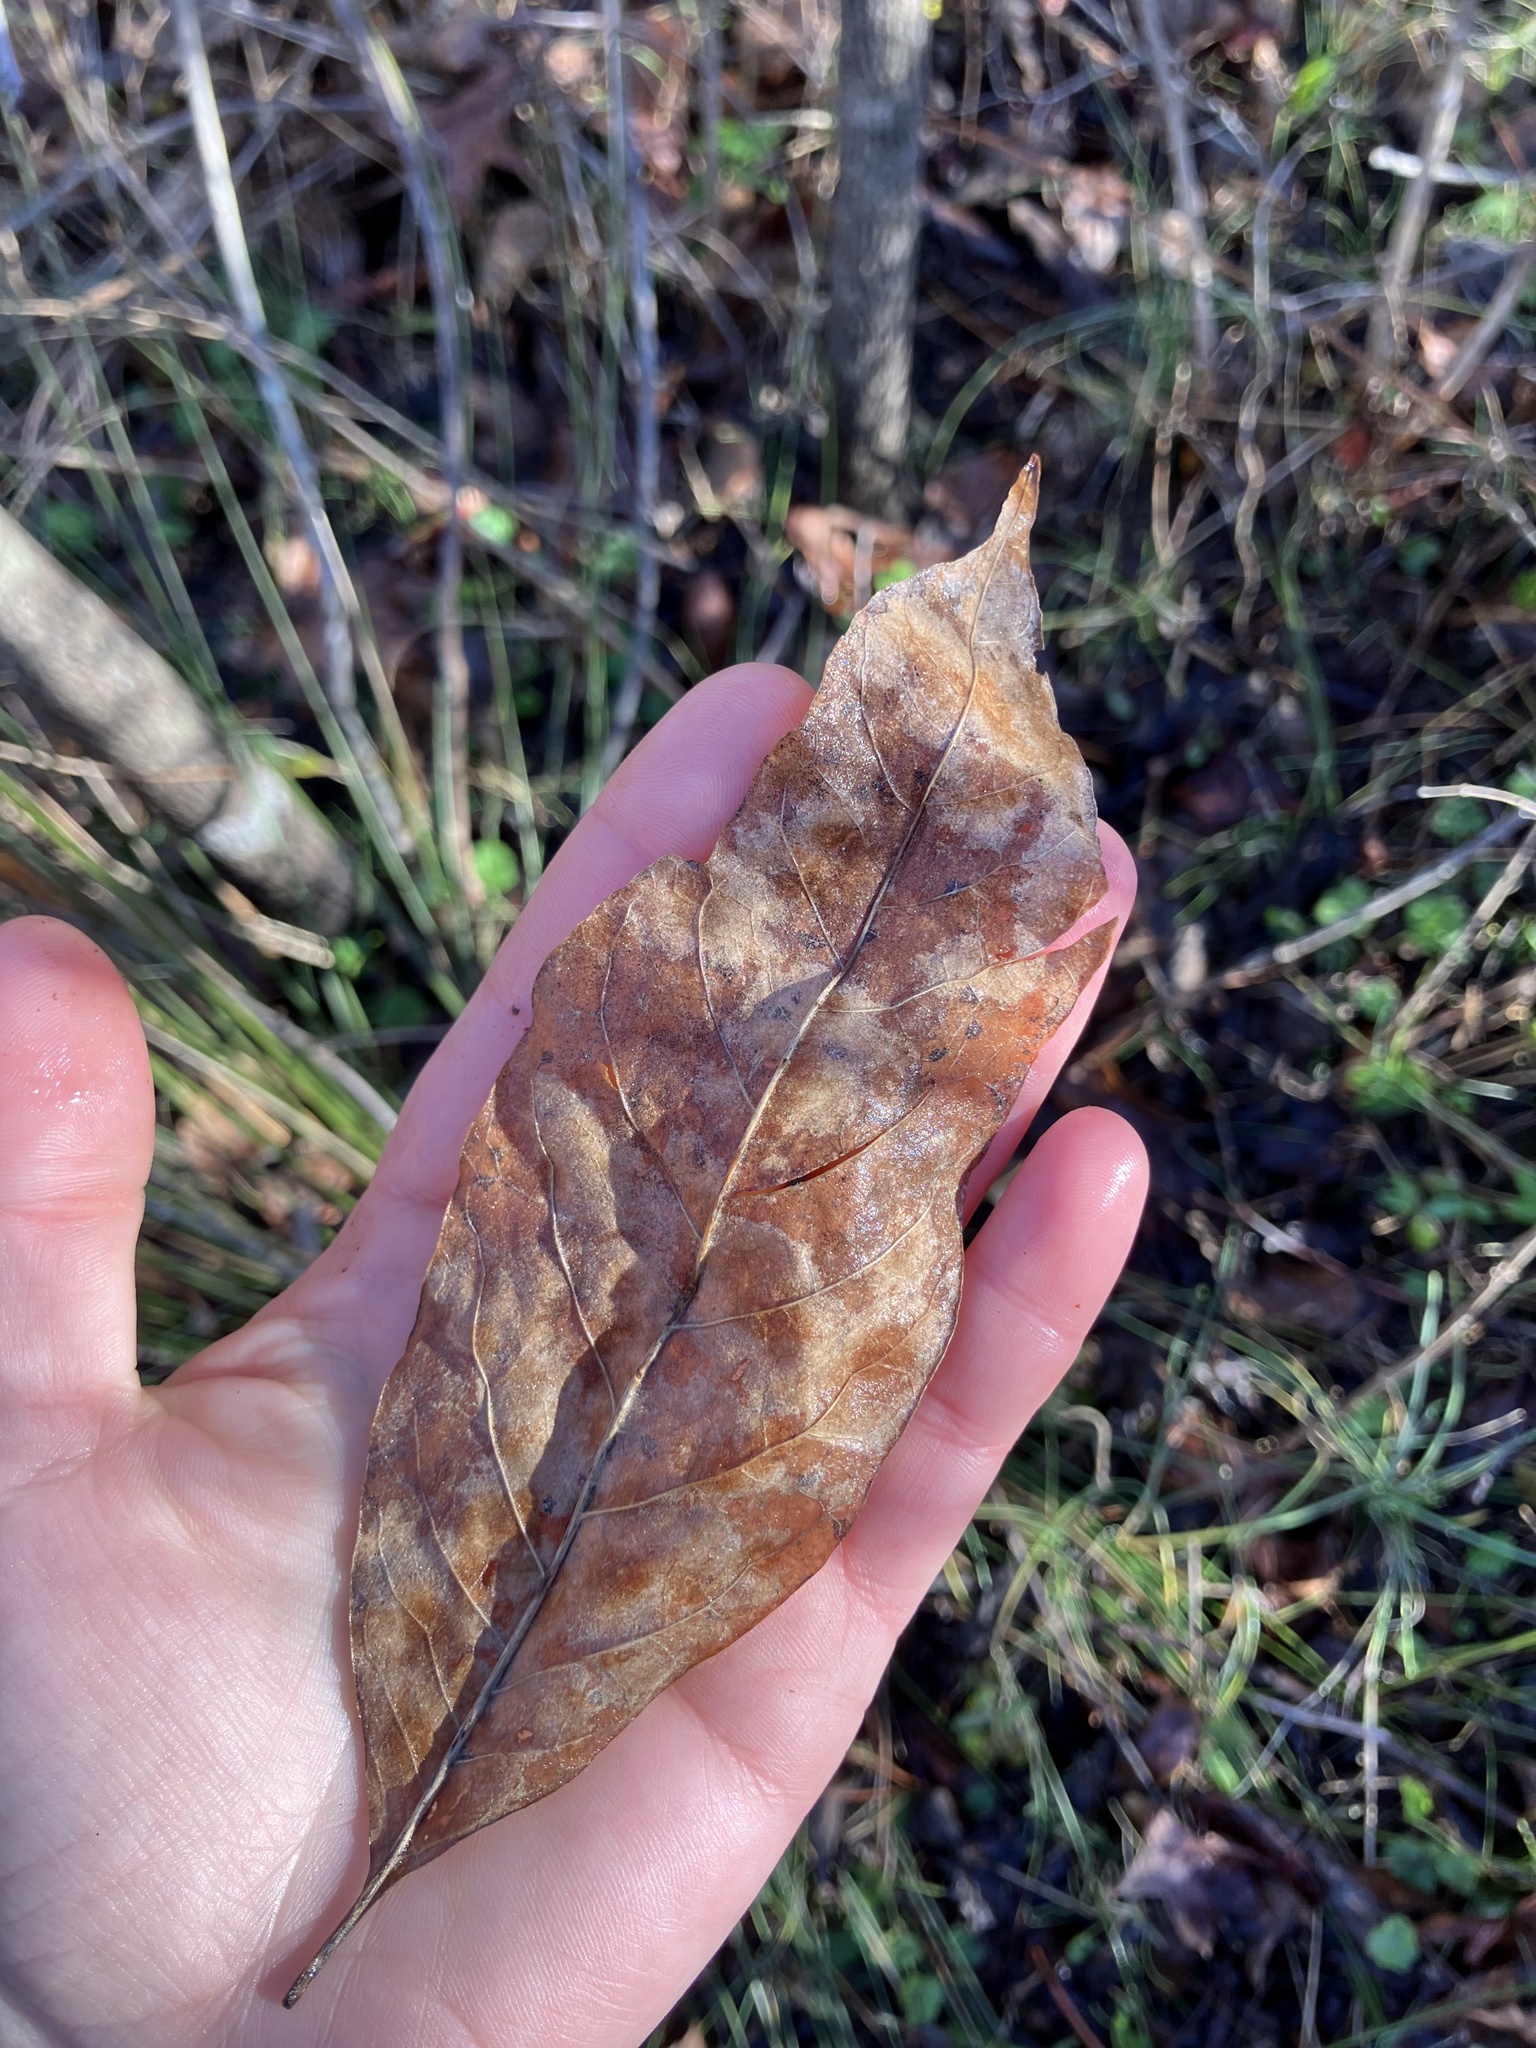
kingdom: Plantae
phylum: Tracheophyta
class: Magnoliopsida
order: Ericales
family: Ericaceae
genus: Oxydendrum
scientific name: Oxydendrum arboreum
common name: Sourwood
